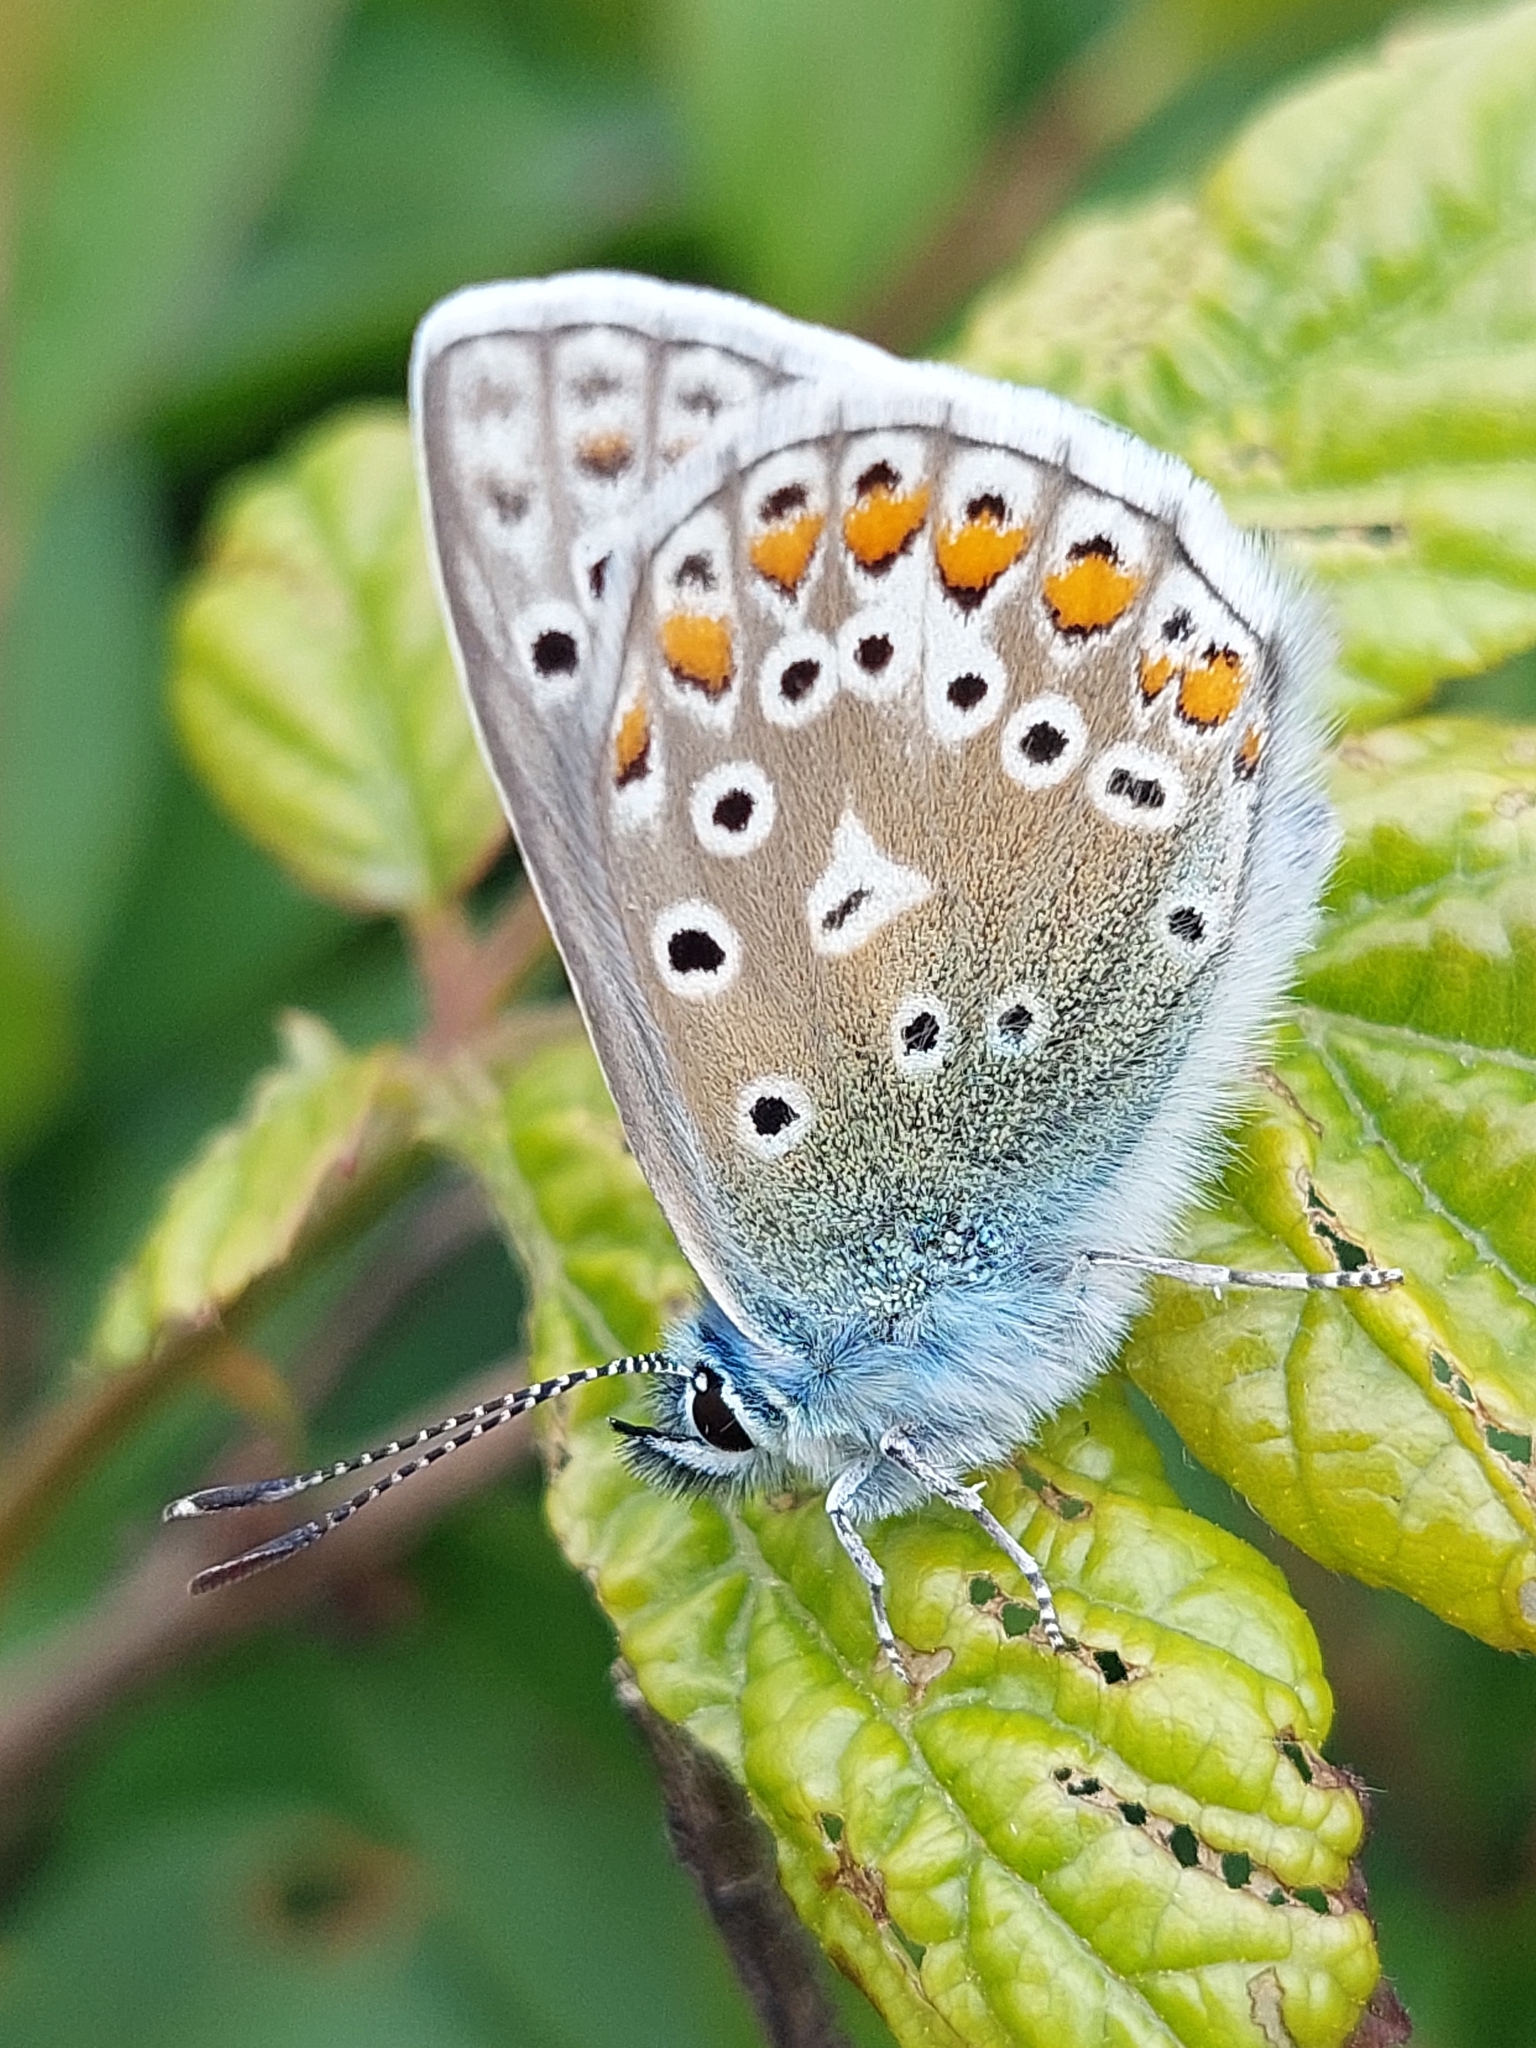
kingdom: Animalia
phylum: Arthropoda
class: Insecta
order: Lepidoptera
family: Lycaenidae
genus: Polyommatus
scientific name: Polyommatus icarus
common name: Common blue
